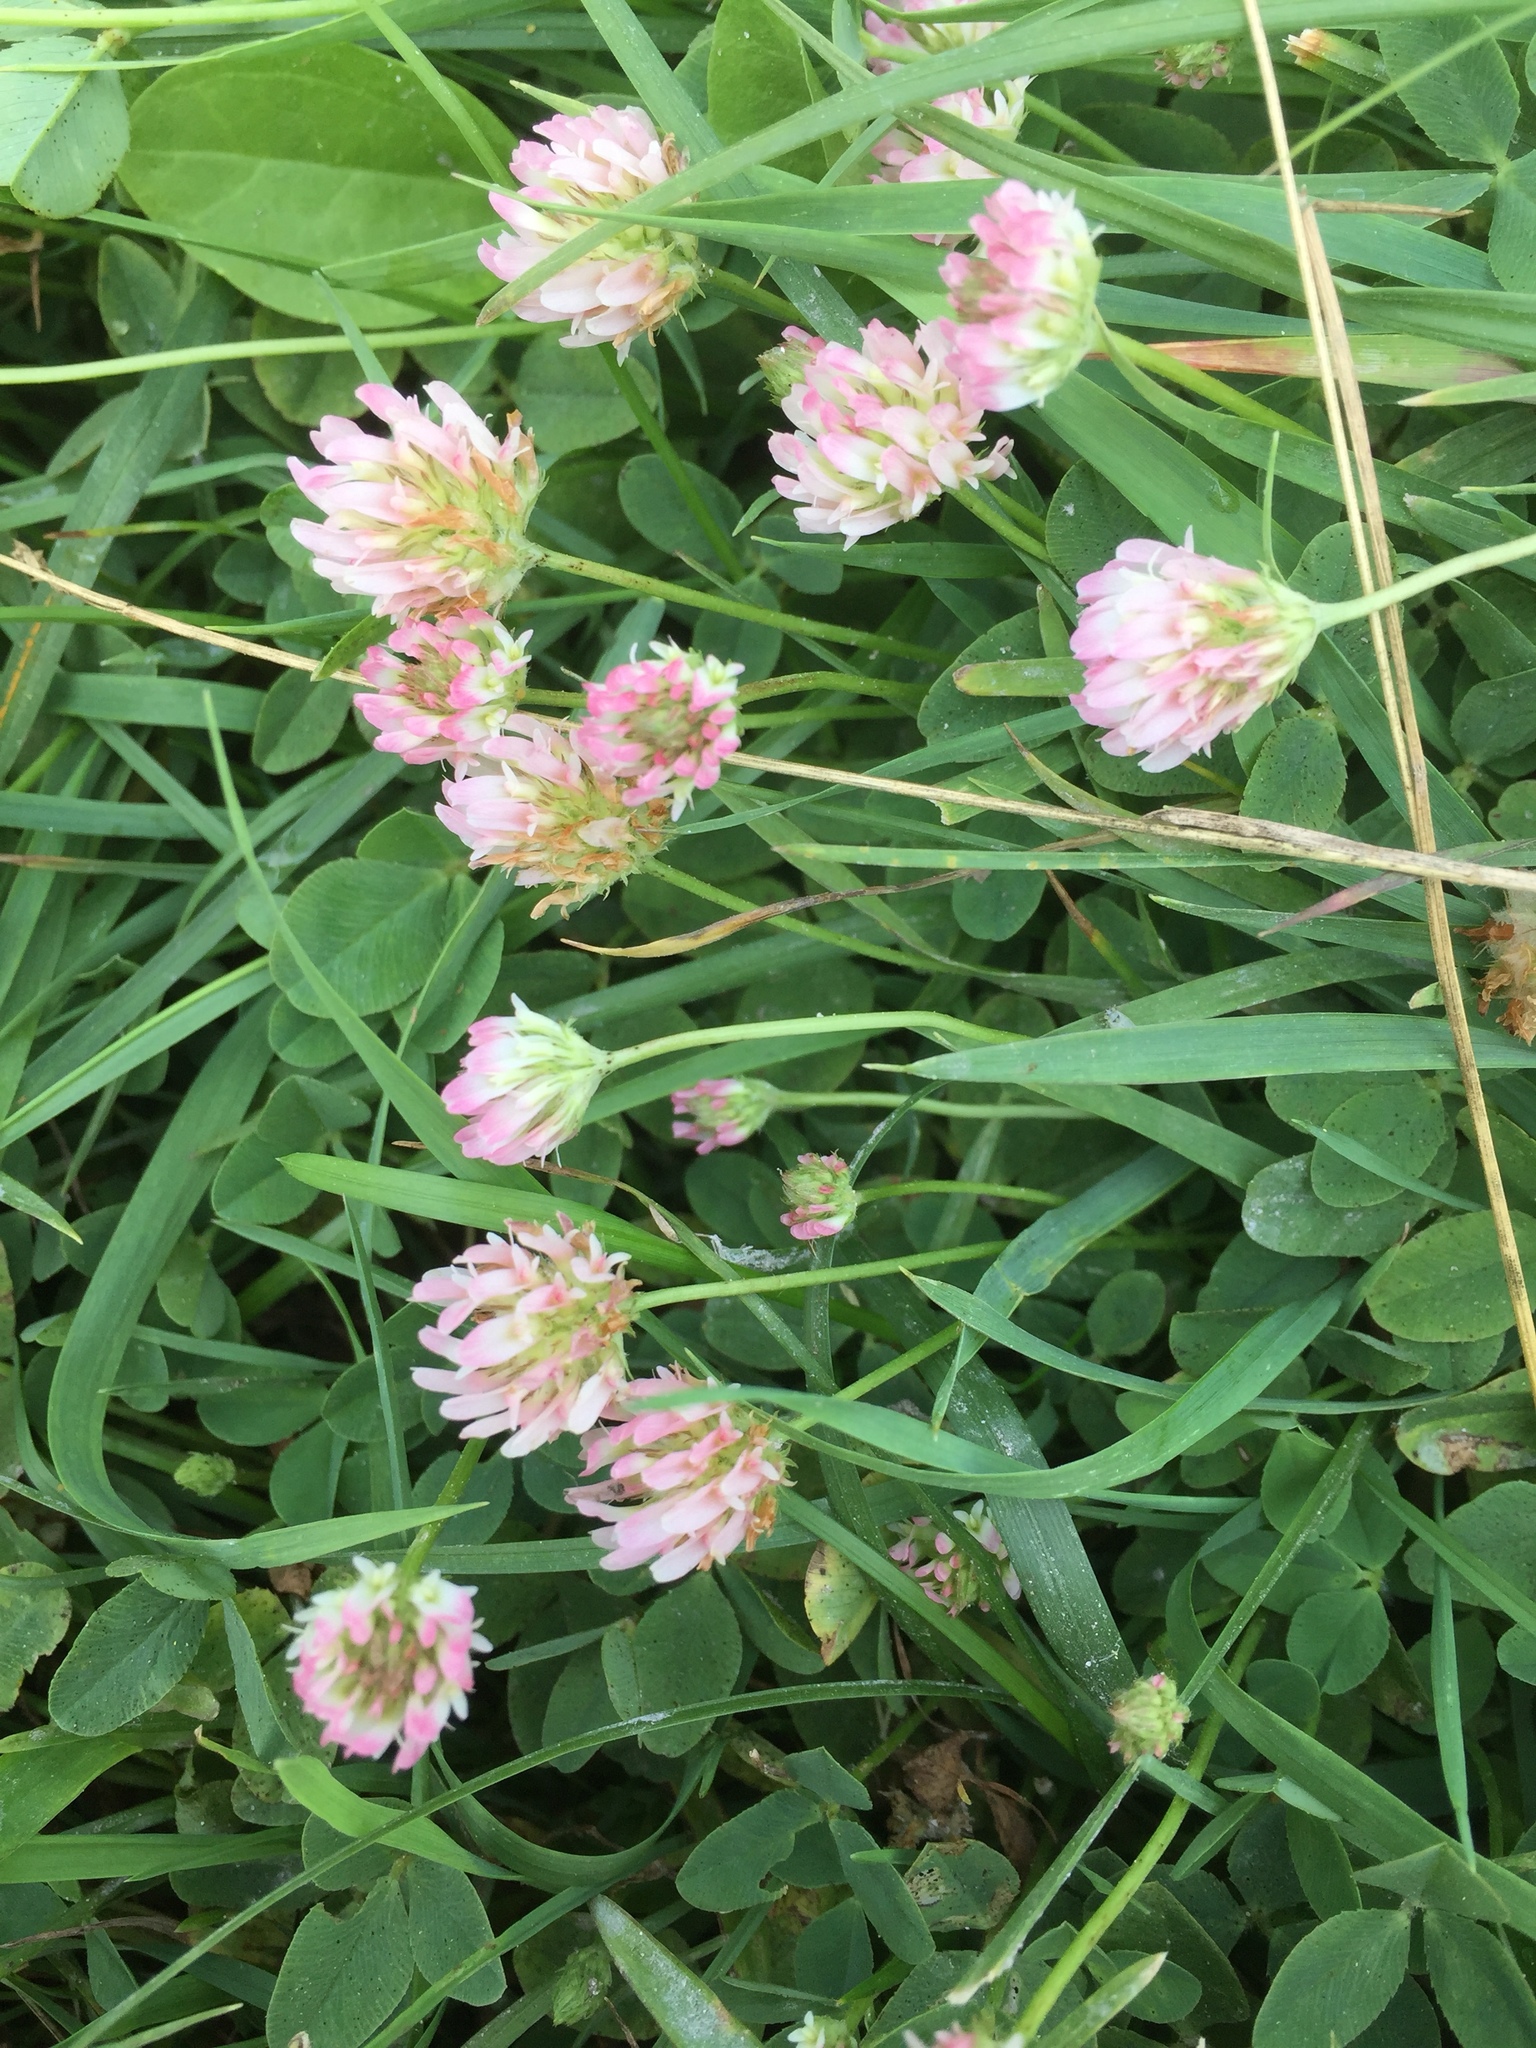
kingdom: Plantae
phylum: Tracheophyta
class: Magnoliopsida
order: Fabales
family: Fabaceae
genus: Trifolium
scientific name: Trifolium fragiferum
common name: Strawberry clover
